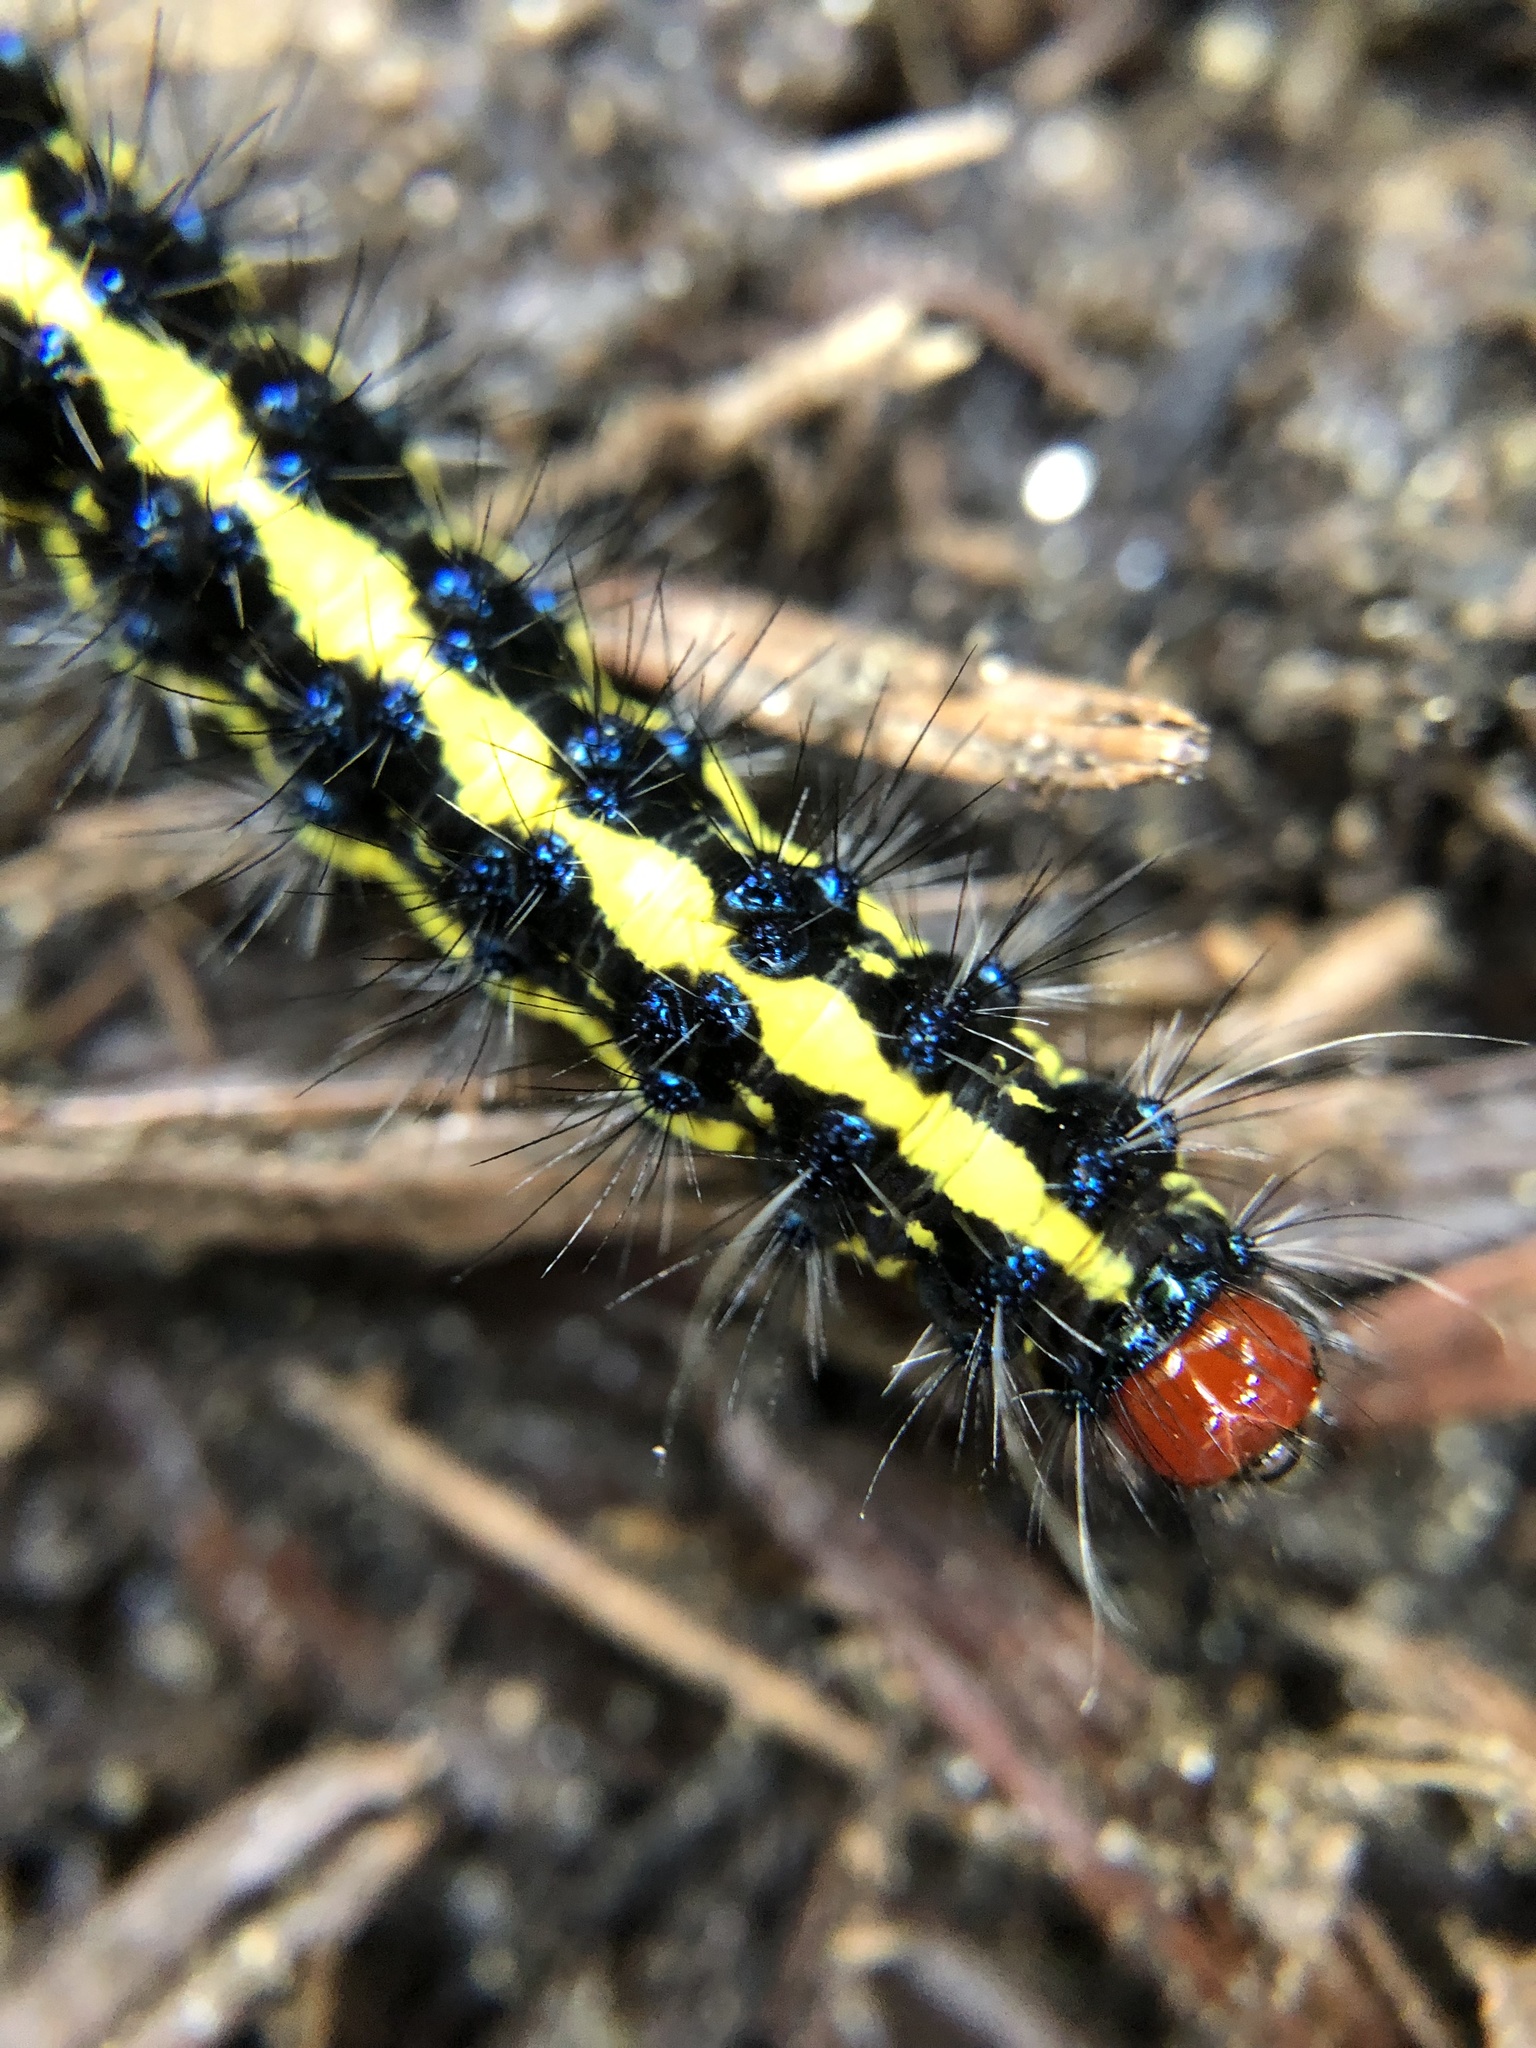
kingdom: Animalia
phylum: Arthropoda
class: Insecta
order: Lepidoptera
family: Erebidae
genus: Gnophaela
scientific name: Gnophaela latipennis
